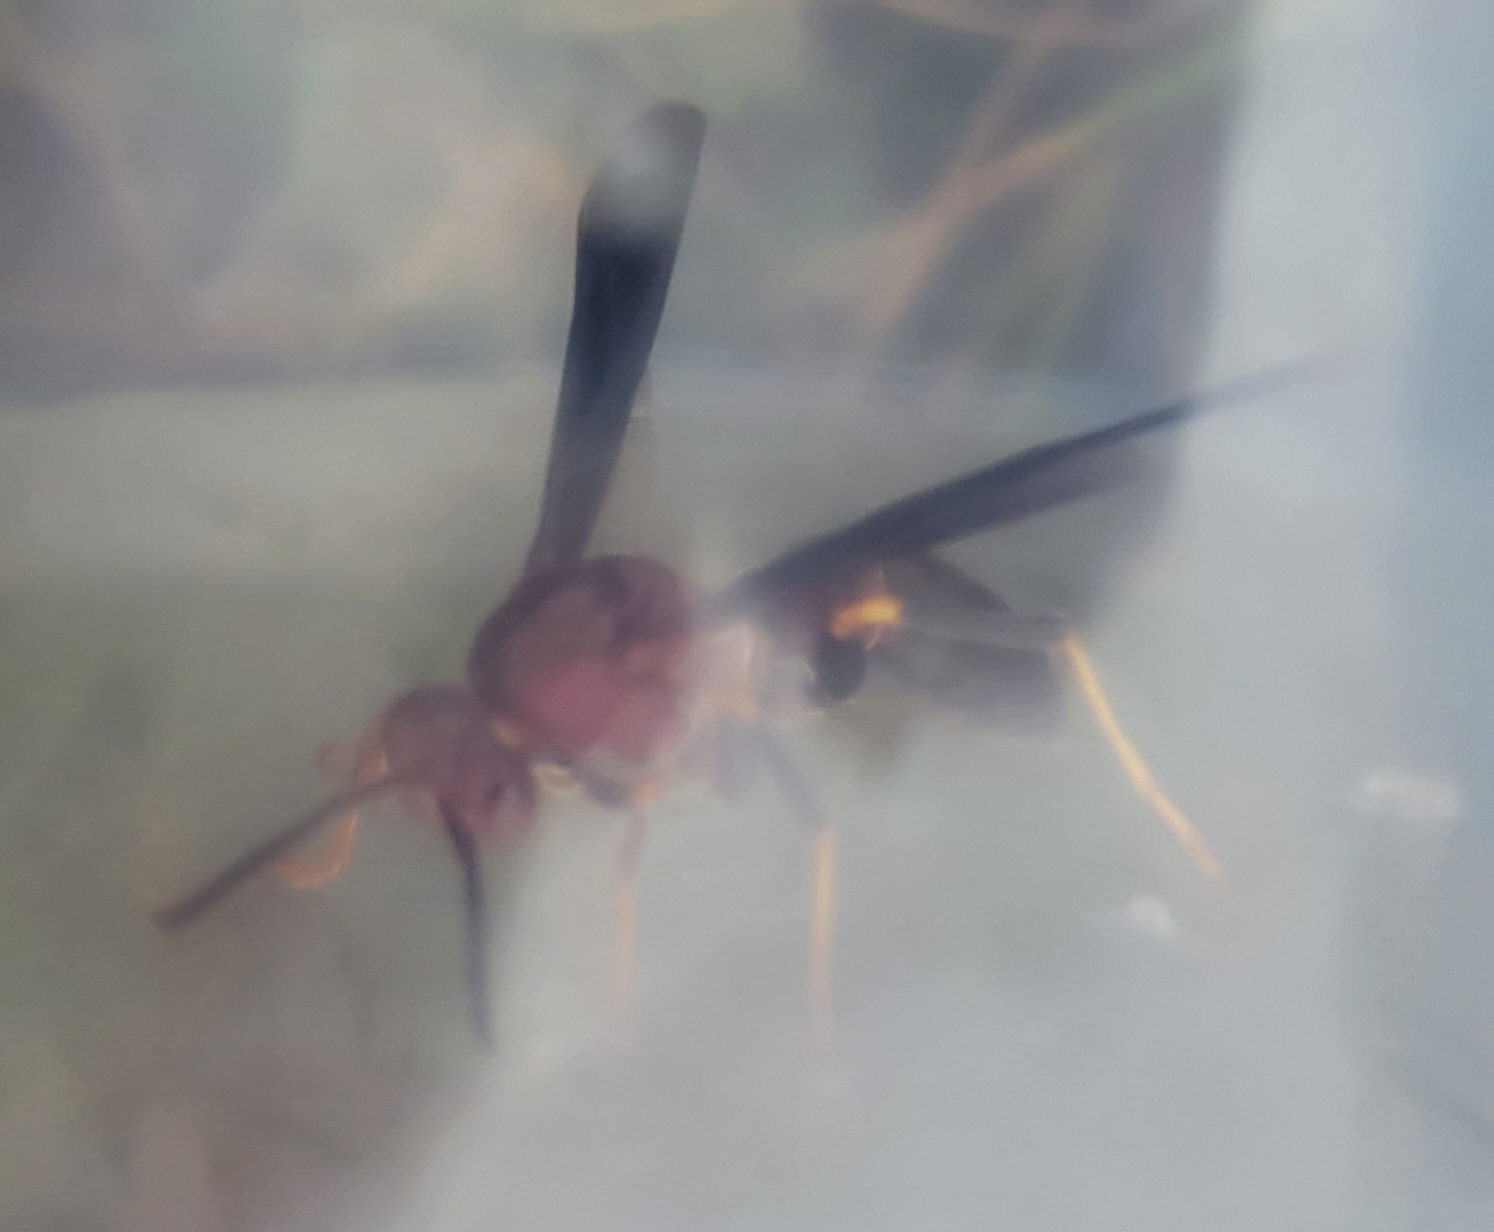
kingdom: Animalia
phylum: Arthropoda
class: Insecta
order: Hymenoptera
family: Eumenidae
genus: Polistes
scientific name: Polistes metricus
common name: Metric paper wasp
